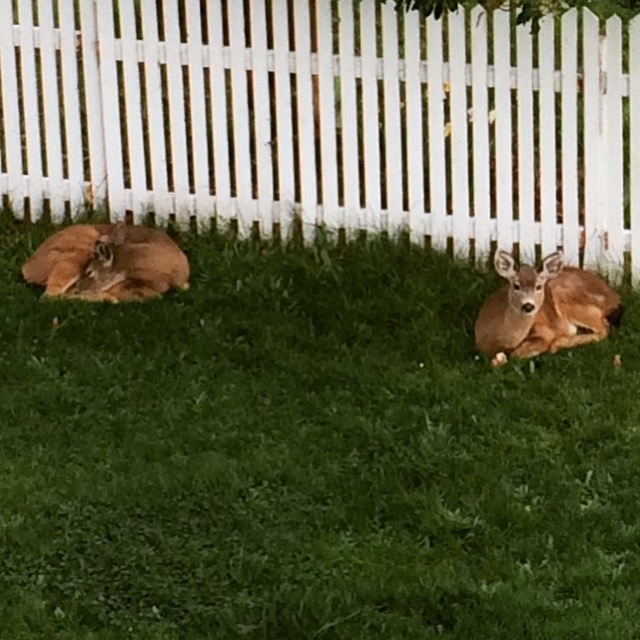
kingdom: Animalia
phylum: Chordata
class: Mammalia
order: Artiodactyla
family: Cervidae
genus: Odocoileus
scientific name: Odocoileus hemionus
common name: Mule deer
